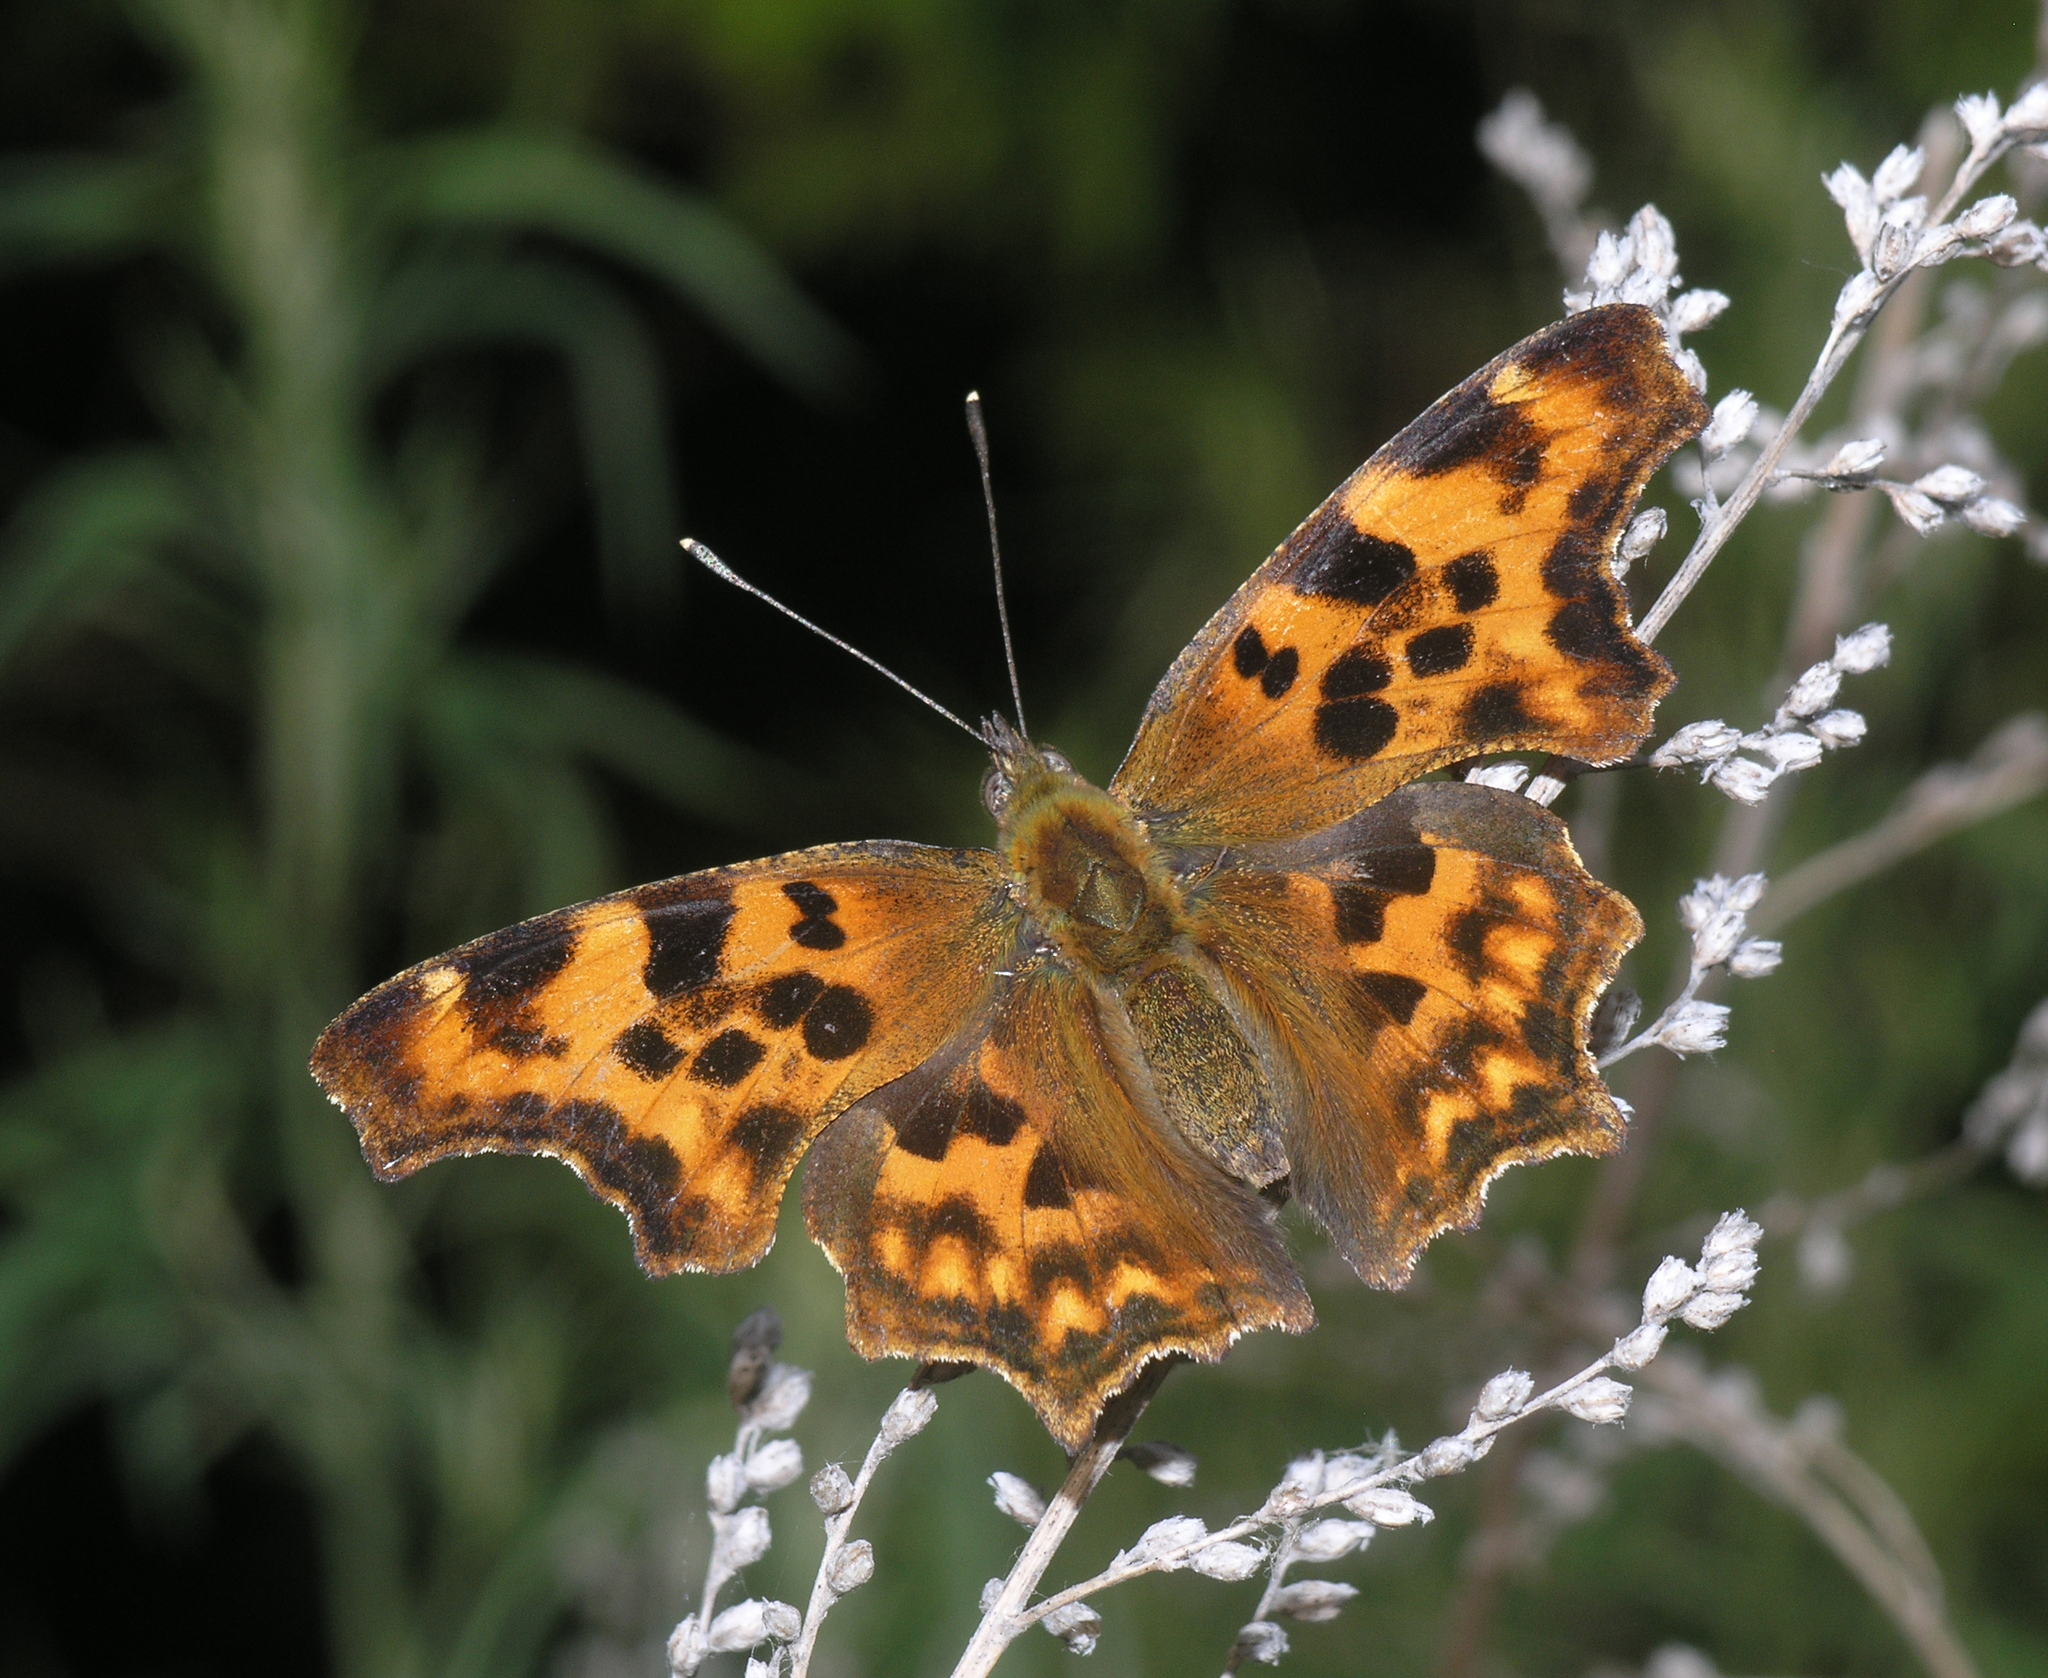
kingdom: Animalia
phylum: Arthropoda
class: Insecta
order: Lepidoptera
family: Nymphalidae
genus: Polygonia
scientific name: Polygonia c-album
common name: Comma
